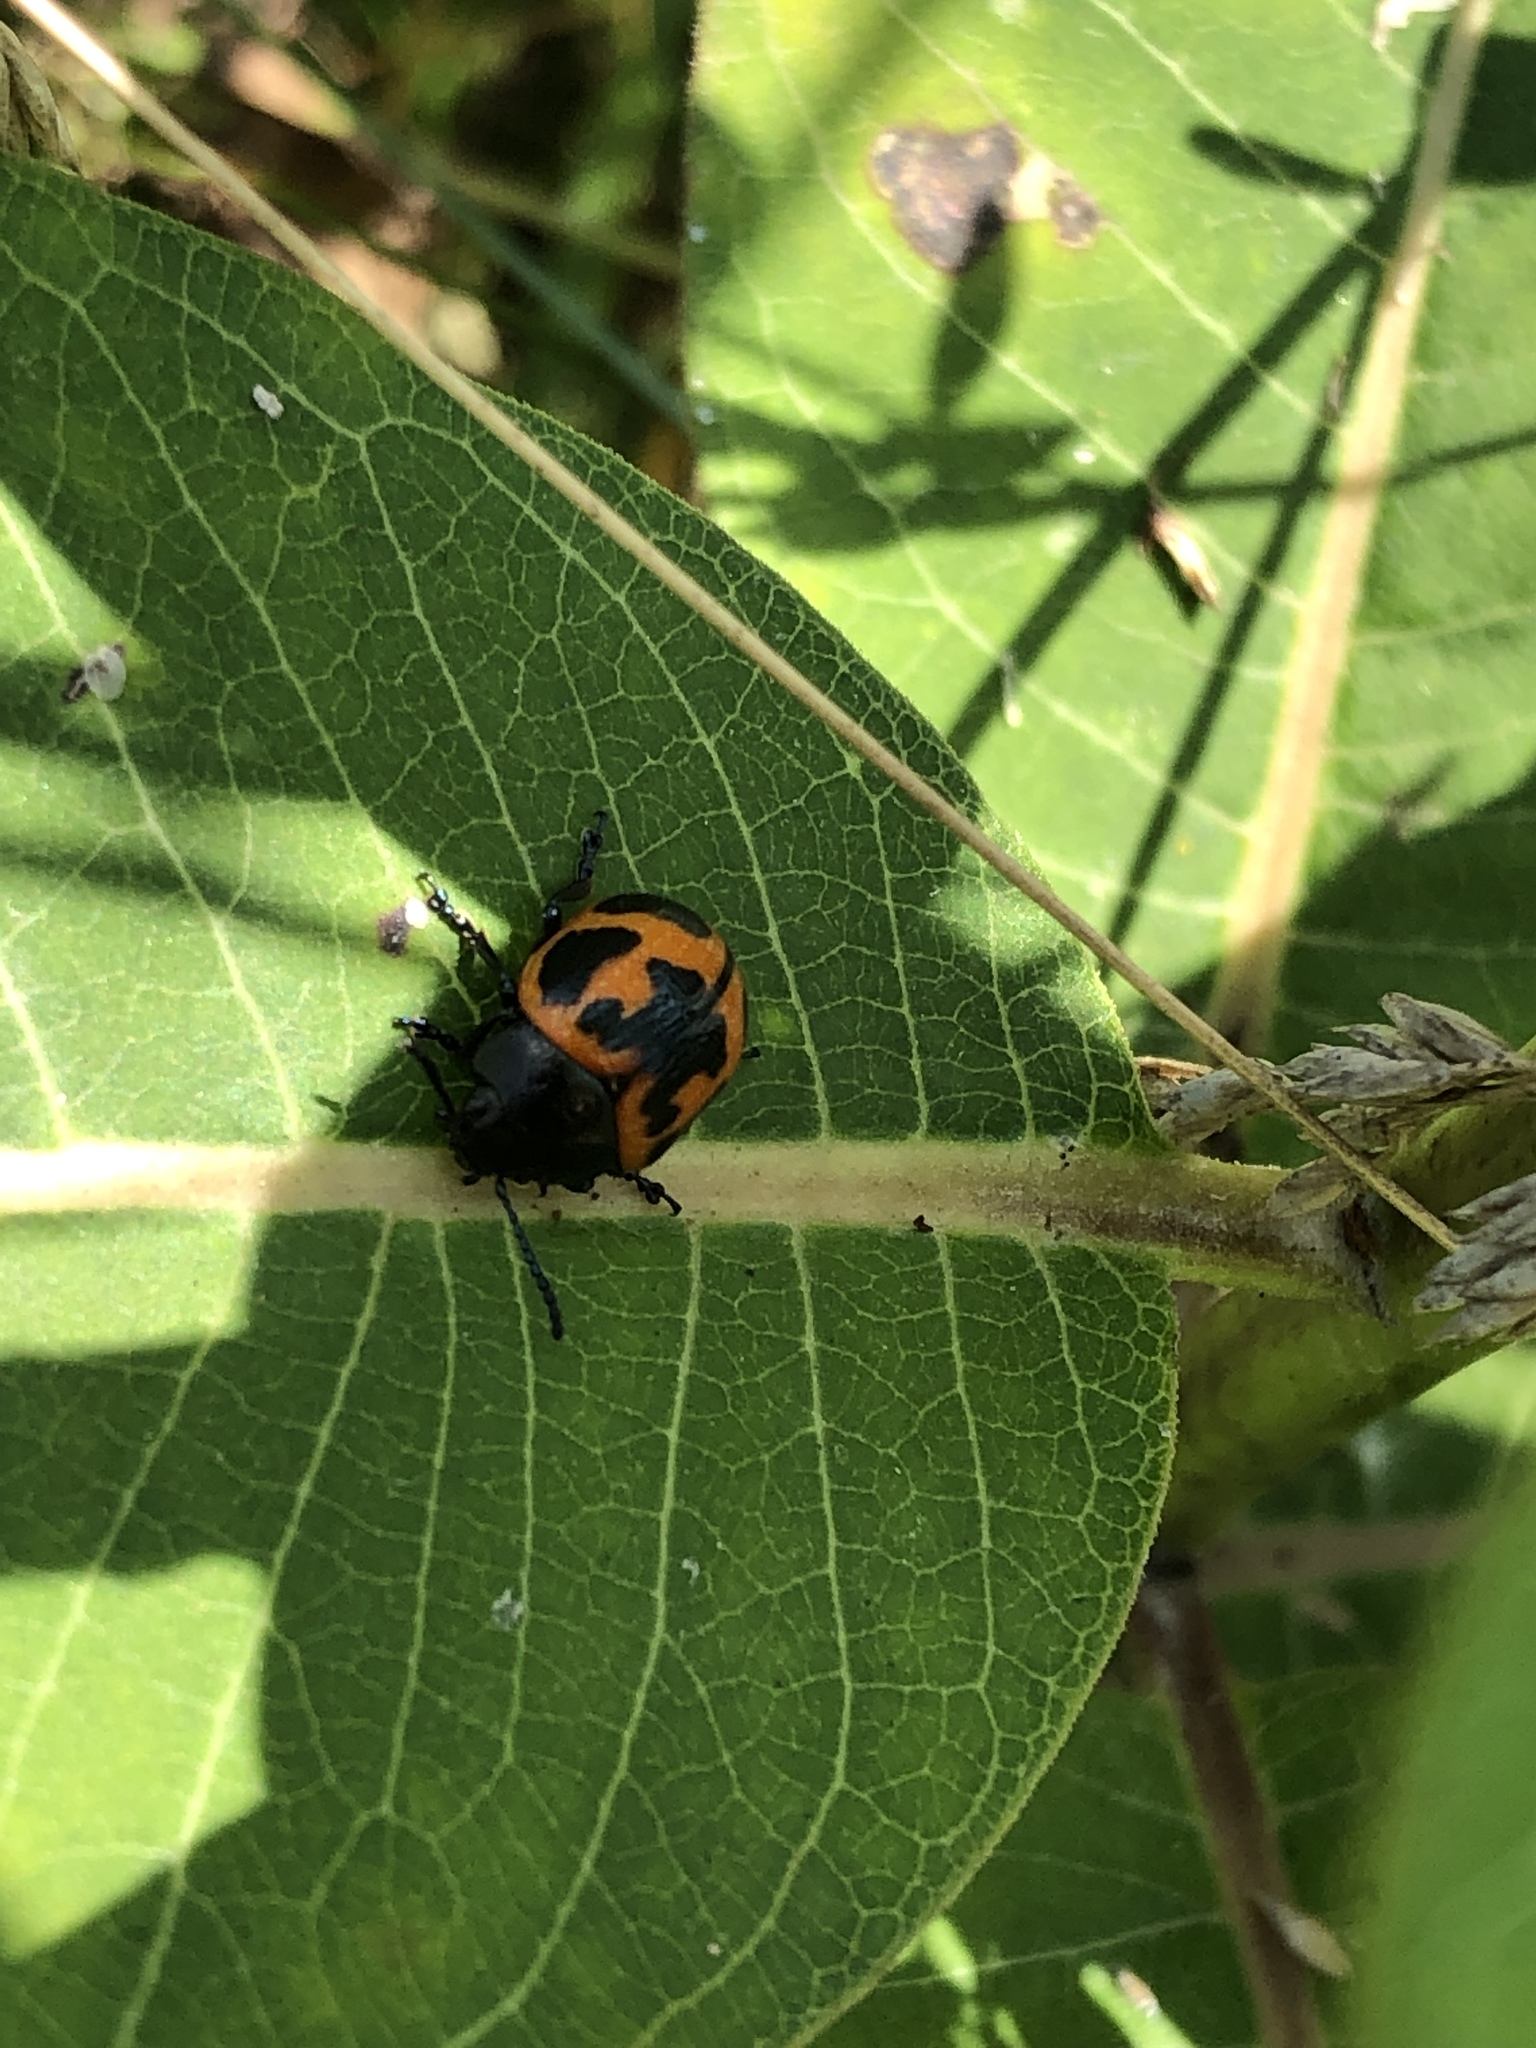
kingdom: Animalia
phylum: Arthropoda
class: Insecta
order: Coleoptera
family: Chrysomelidae
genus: Labidomera
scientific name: Labidomera clivicollis
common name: Swamp milkweed leaf beetle
